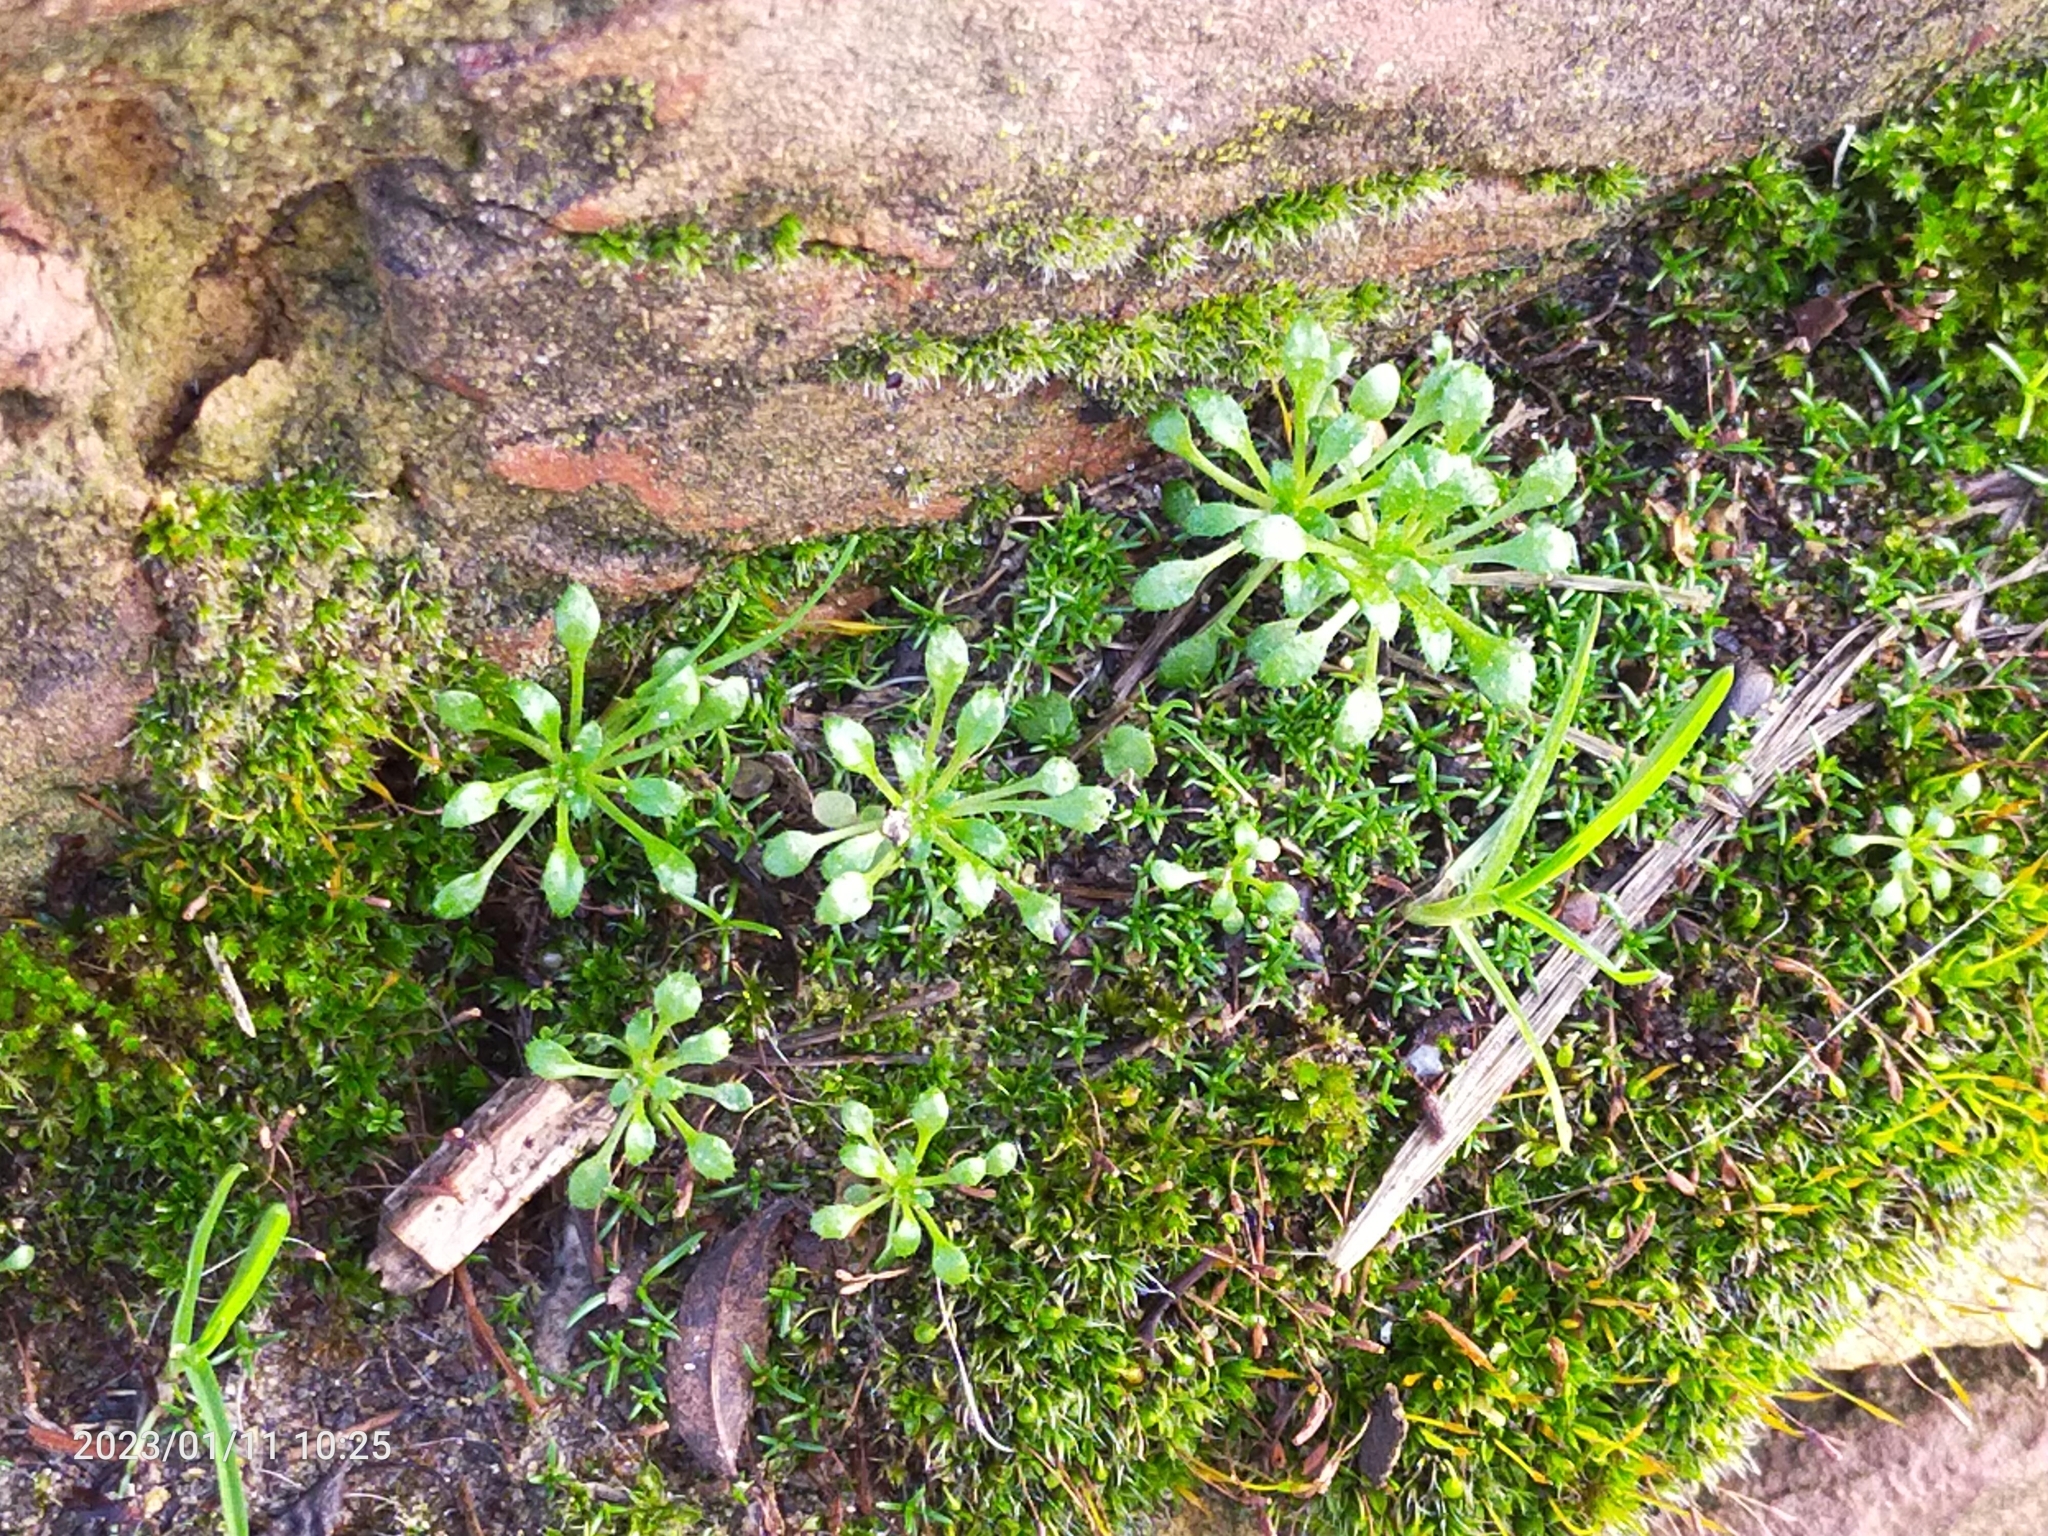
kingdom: Plantae
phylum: Tracheophyta
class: Magnoliopsida
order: Brassicales
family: Brassicaceae
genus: Draba
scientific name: Draba verna
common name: Spring draba
